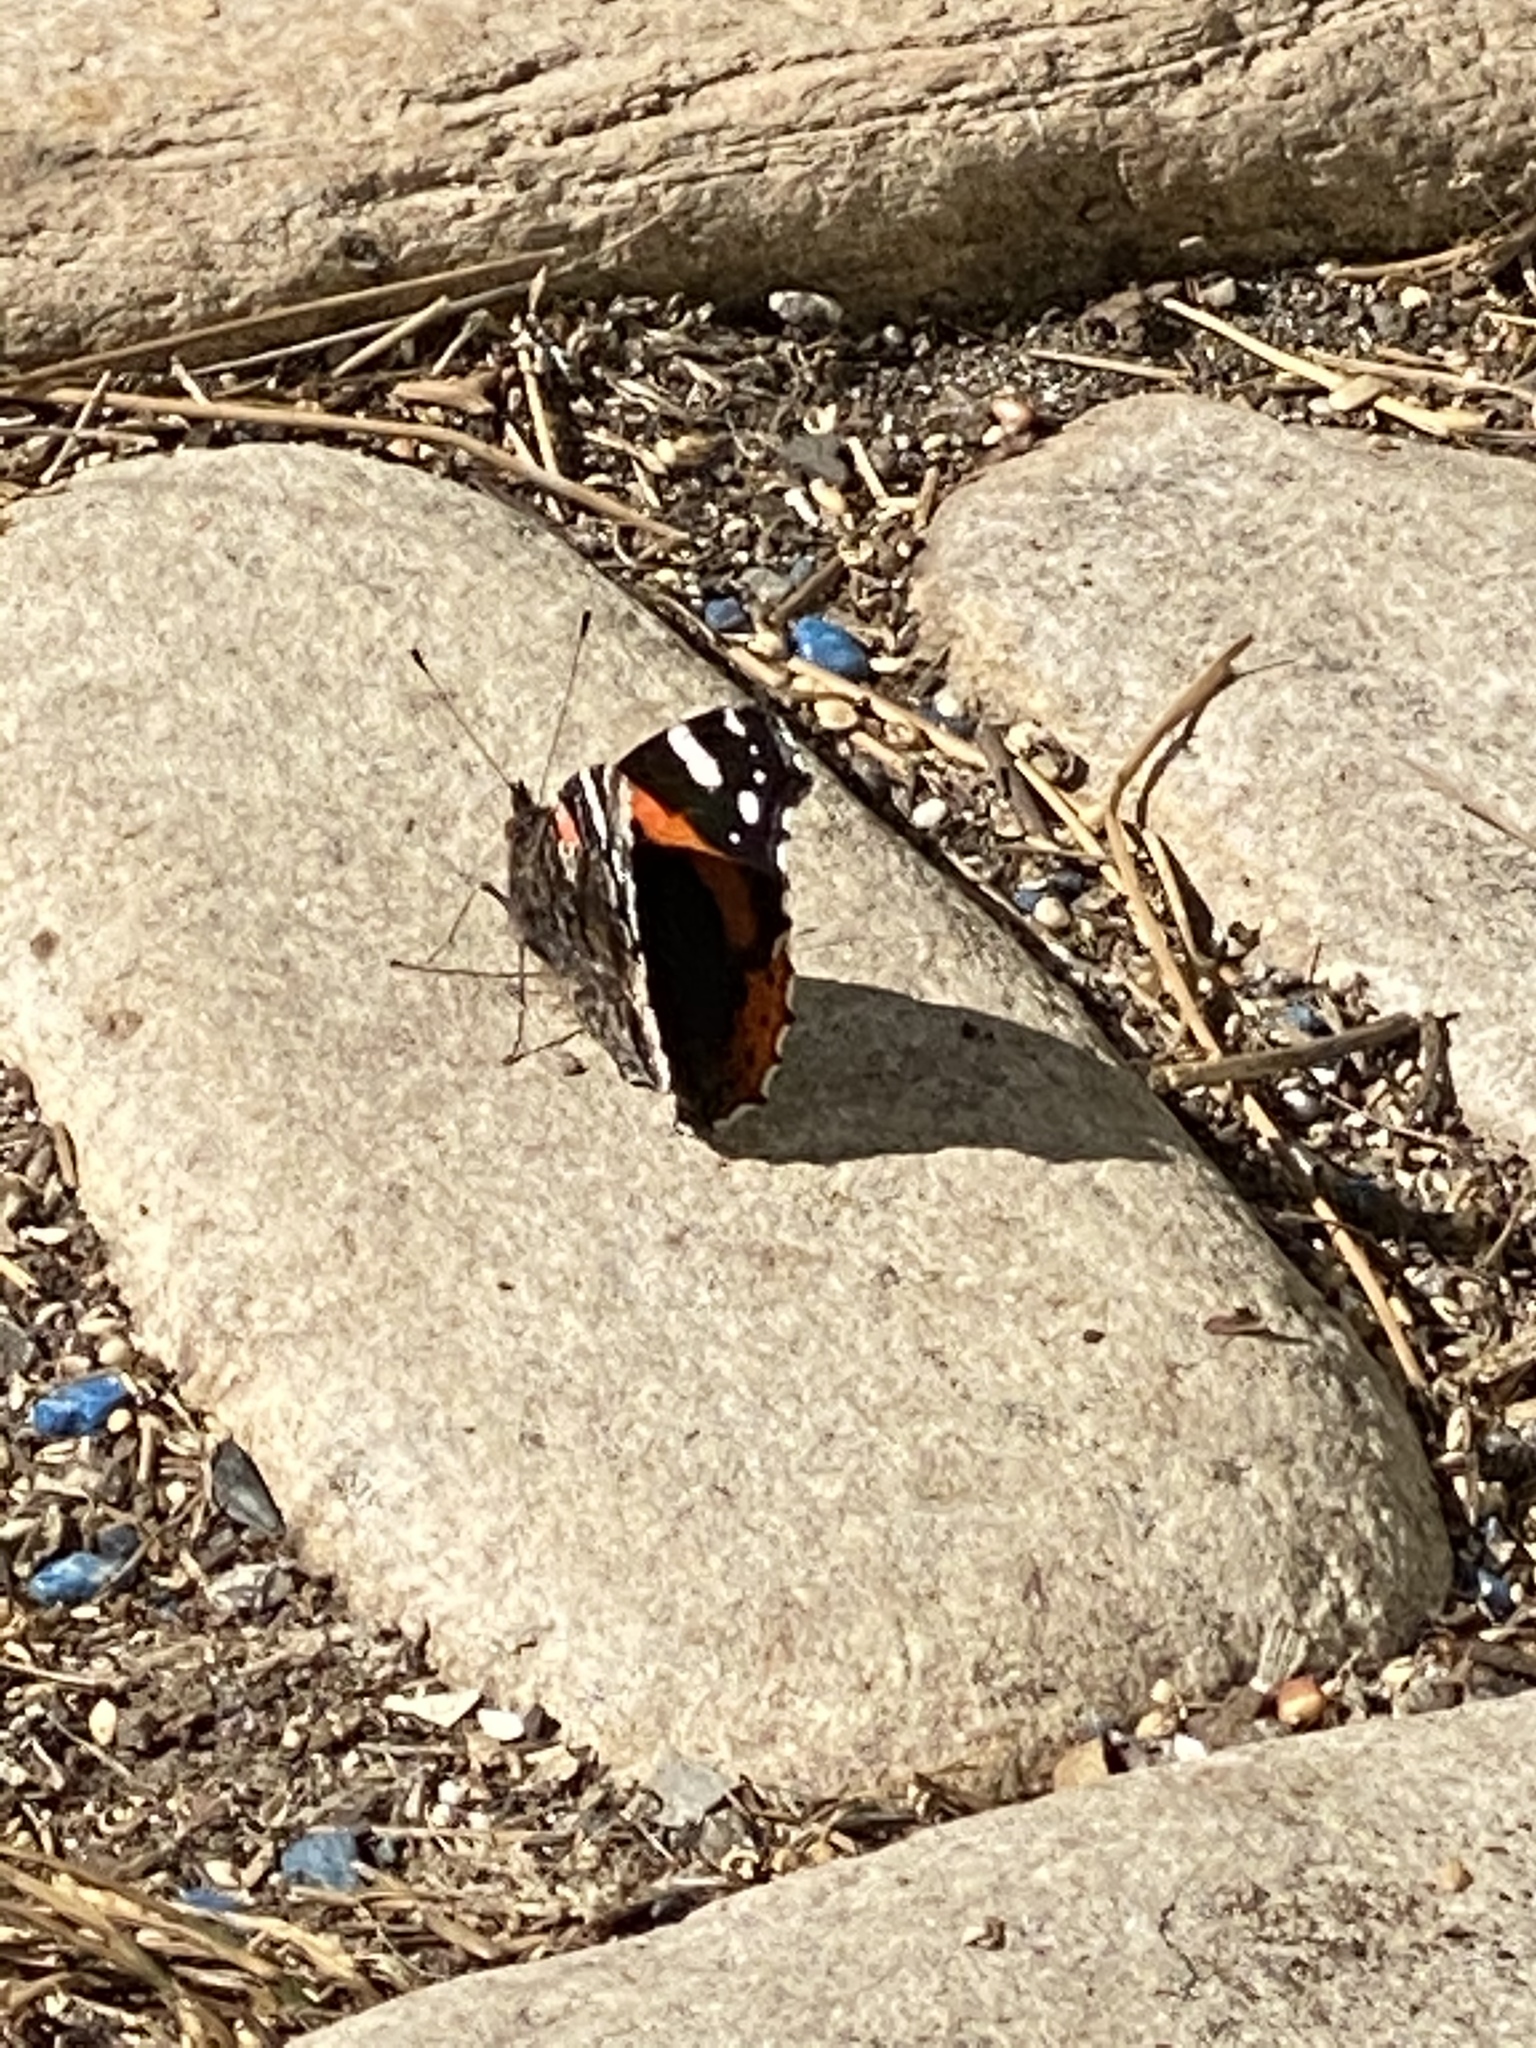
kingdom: Animalia
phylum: Arthropoda
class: Insecta
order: Lepidoptera
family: Nymphalidae
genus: Vanessa
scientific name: Vanessa atalanta
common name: Red admiral
